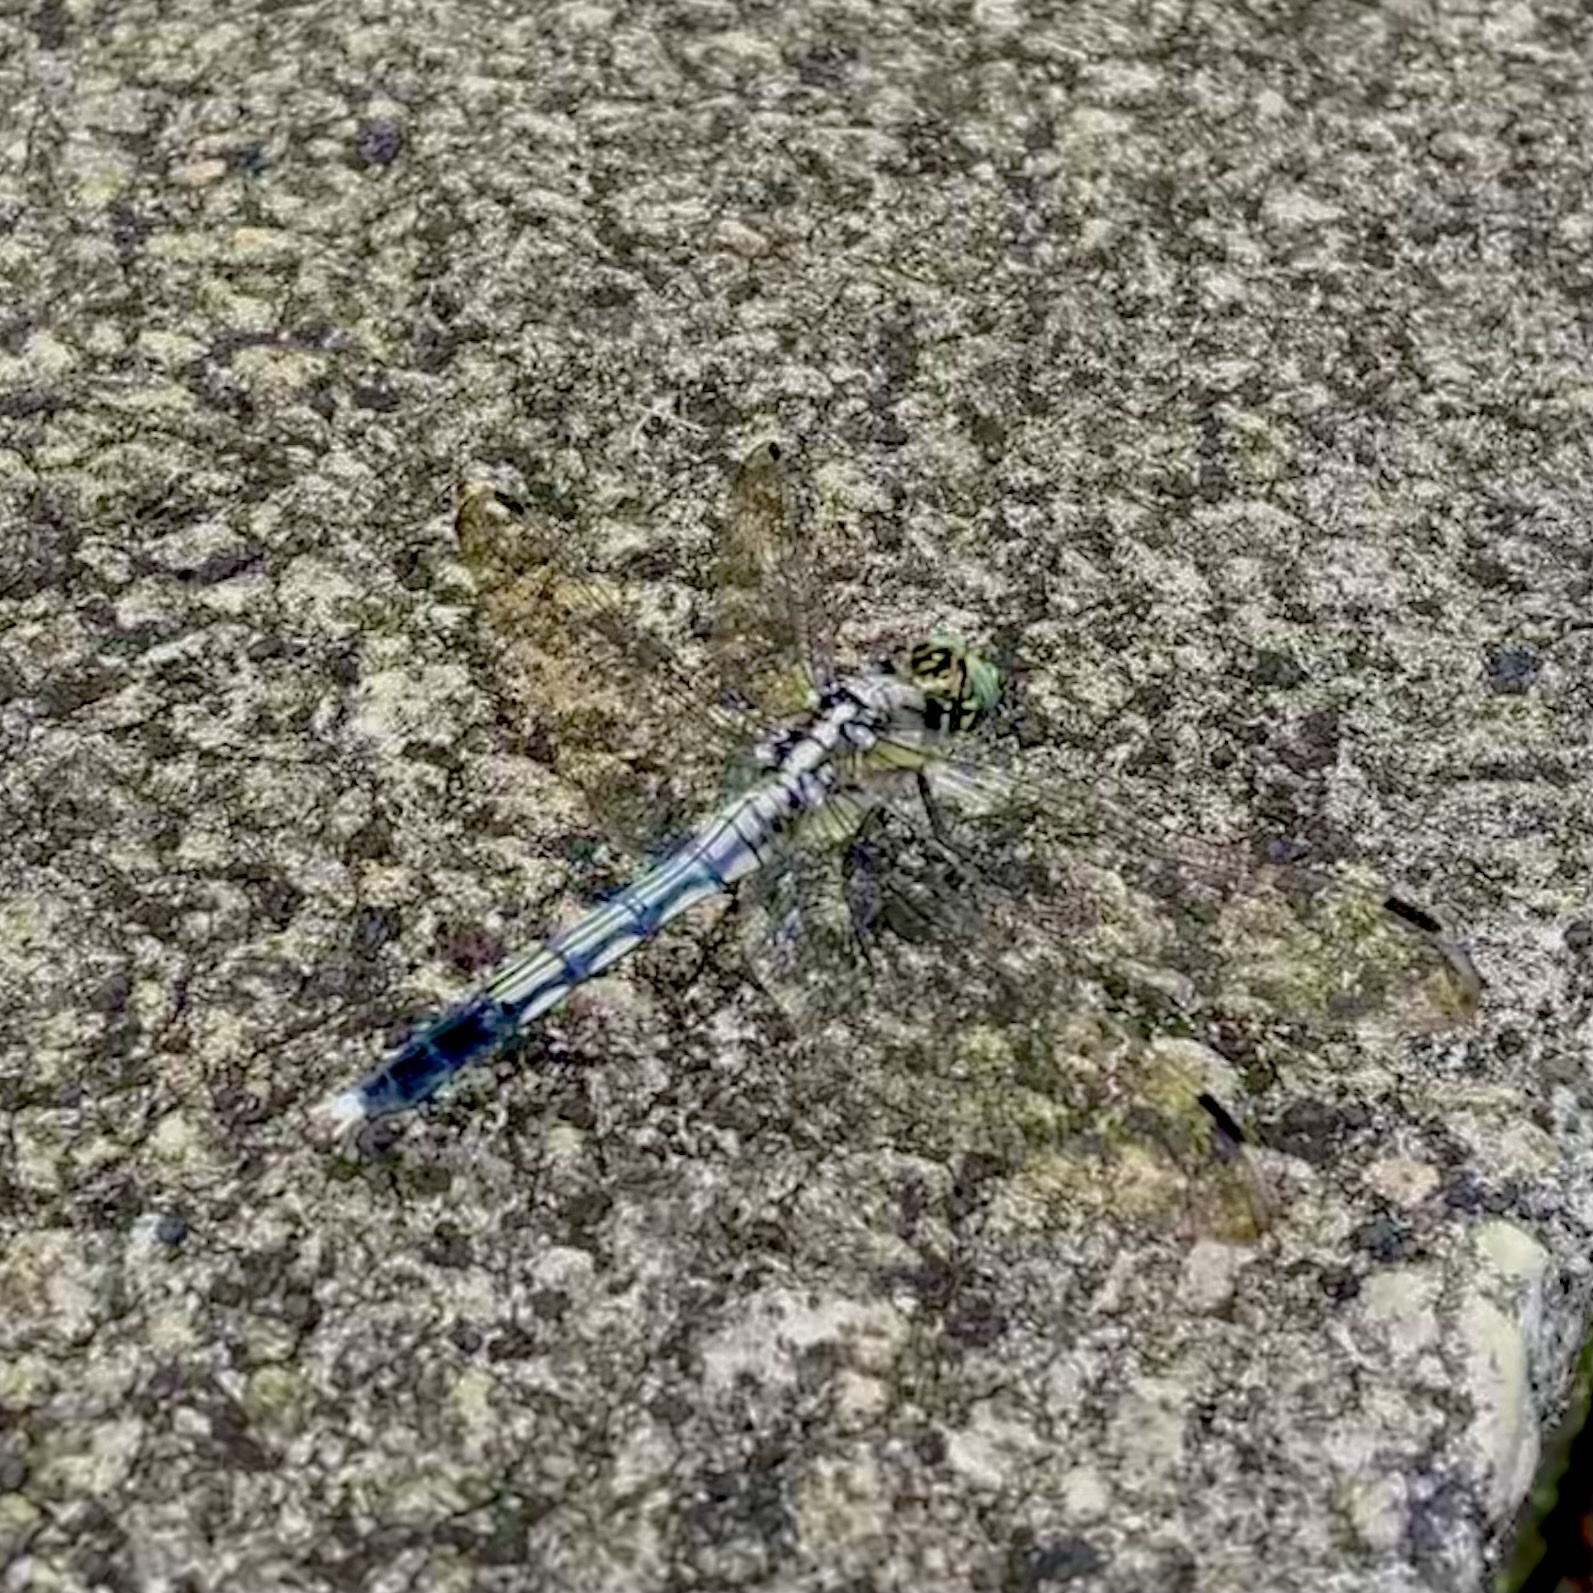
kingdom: Animalia
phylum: Arthropoda
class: Insecta
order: Odonata
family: Libellulidae
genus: Orthetrum
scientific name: Orthetrum albistylum
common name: White-tailed skimmer
